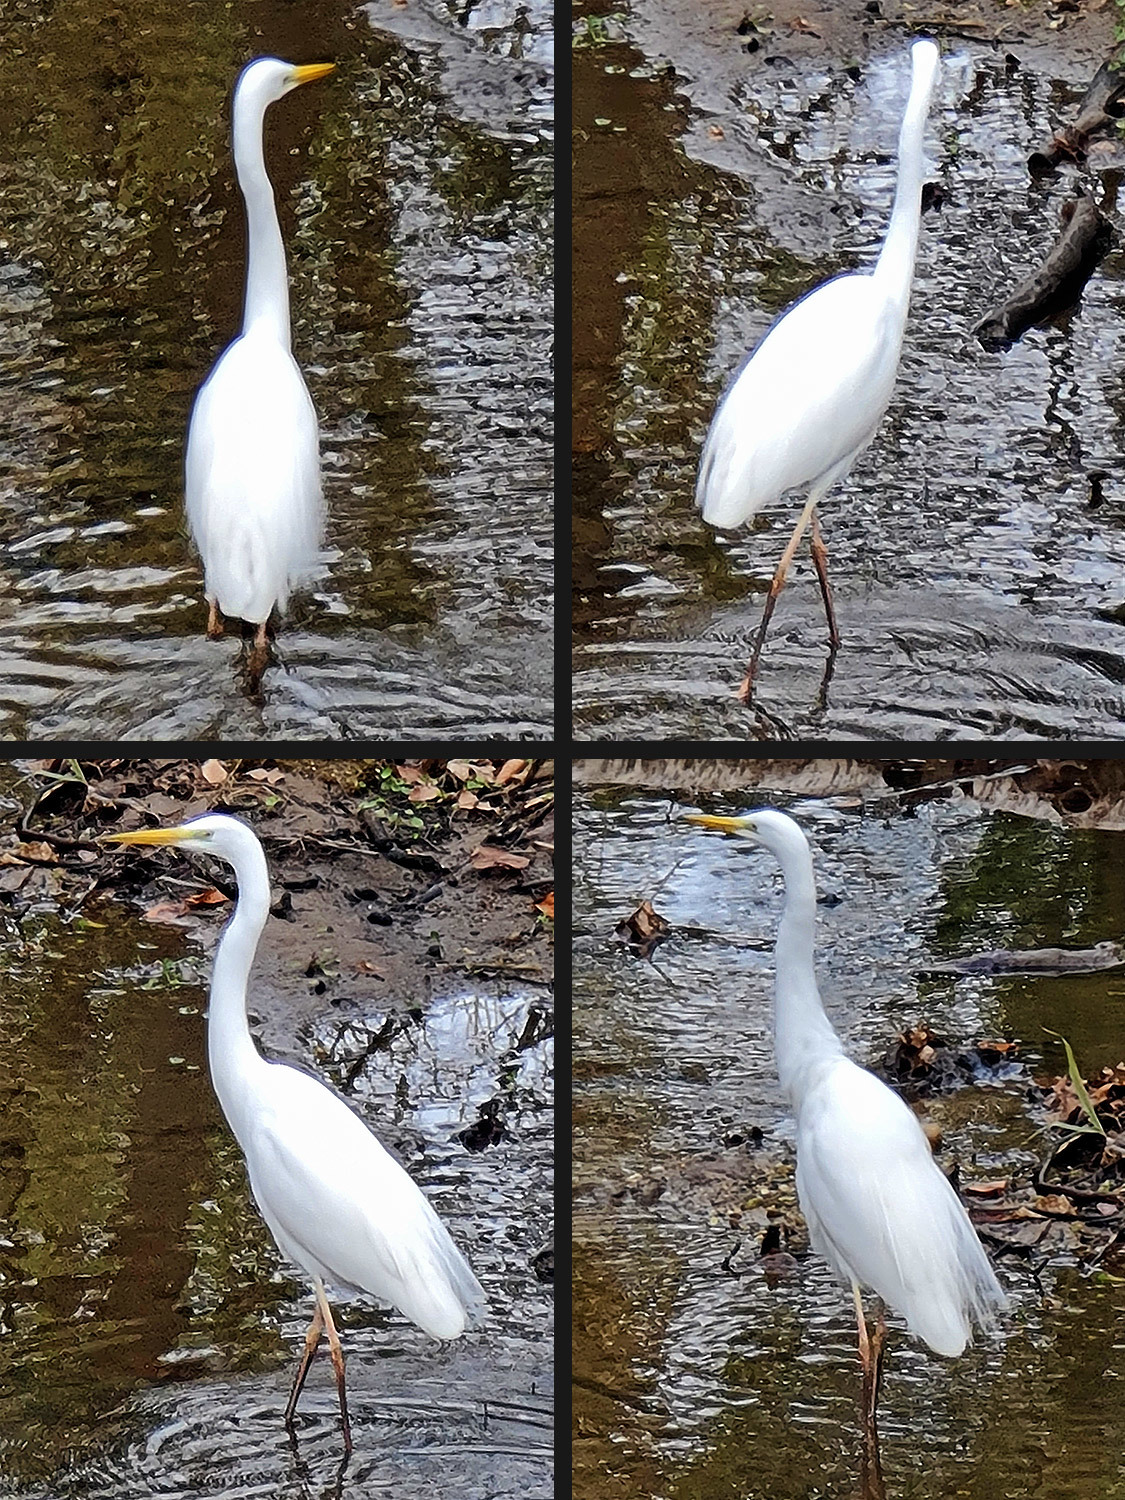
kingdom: Animalia
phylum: Chordata
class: Aves
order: Pelecaniformes
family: Ardeidae
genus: Ardea
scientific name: Ardea alba
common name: Great egret
